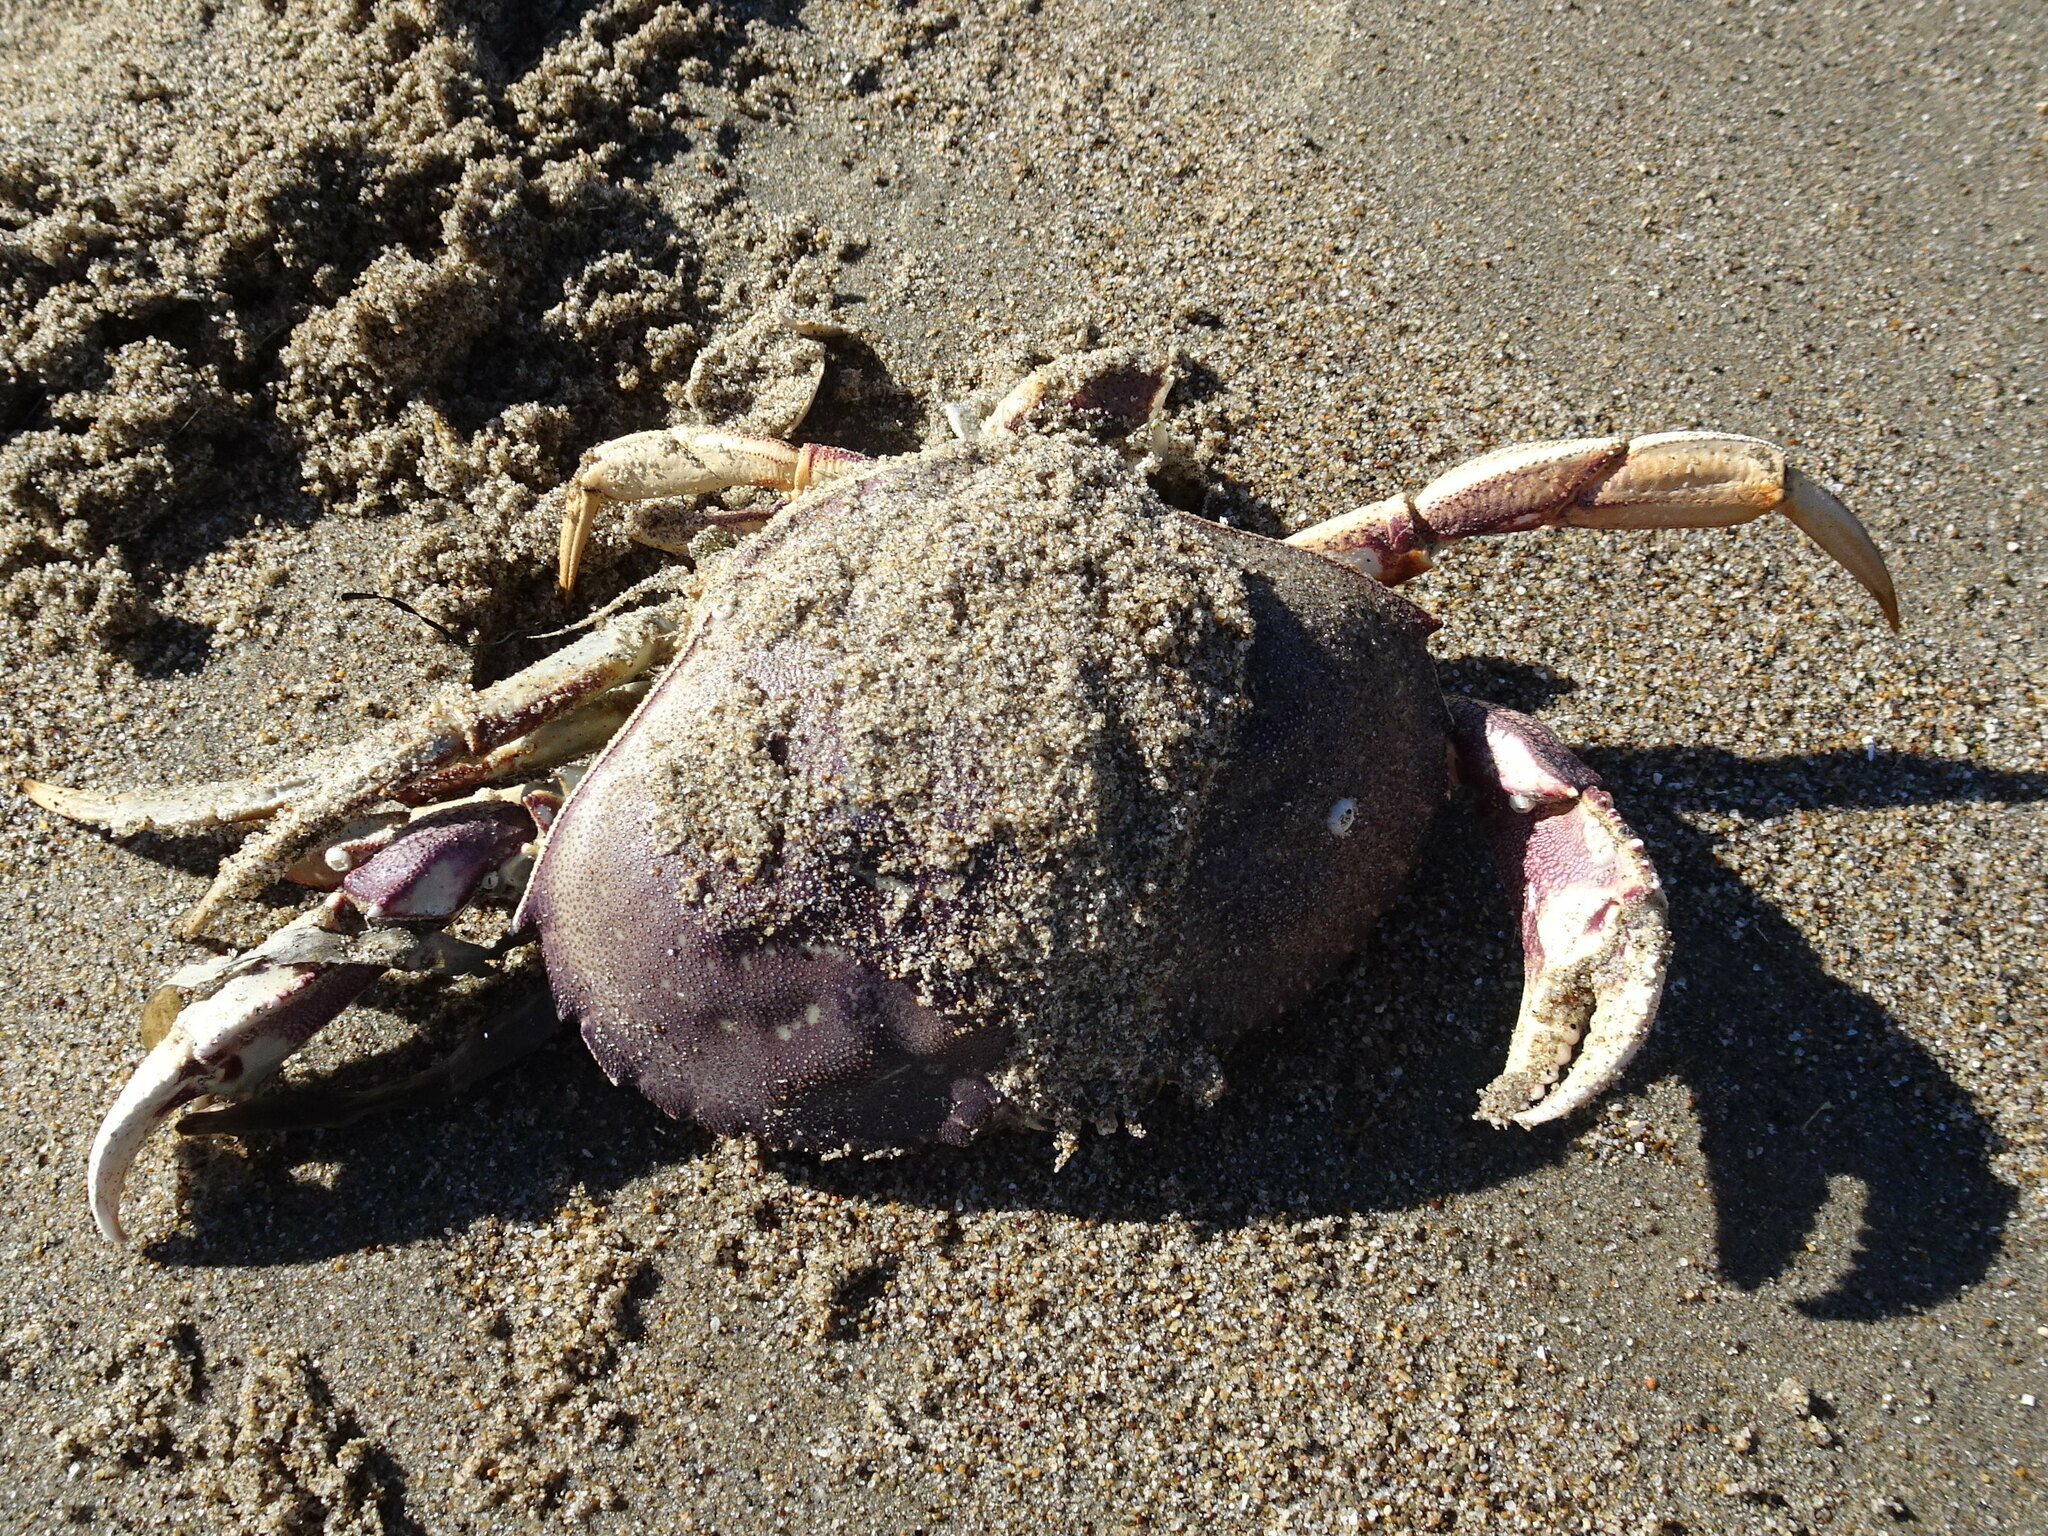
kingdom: Animalia
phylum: Arthropoda
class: Malacostraca
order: Decapoda
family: Cancridae
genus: Metacarcinus
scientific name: Metacarcinus magister
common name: Californian crab
